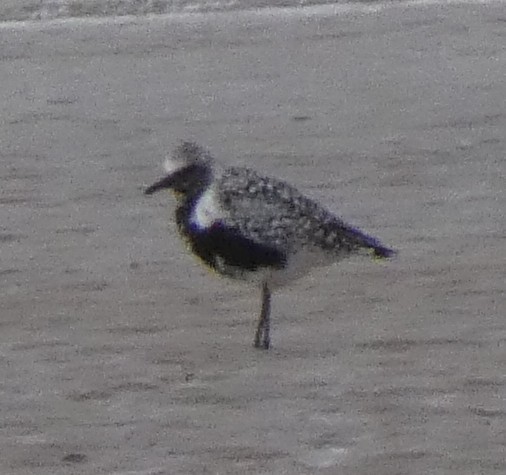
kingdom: Animalia
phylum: Chordata
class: Aves
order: Charadriiformes
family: Charadriidae
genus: Pluvialis
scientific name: Pluvialis squatarola
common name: Grey plover
